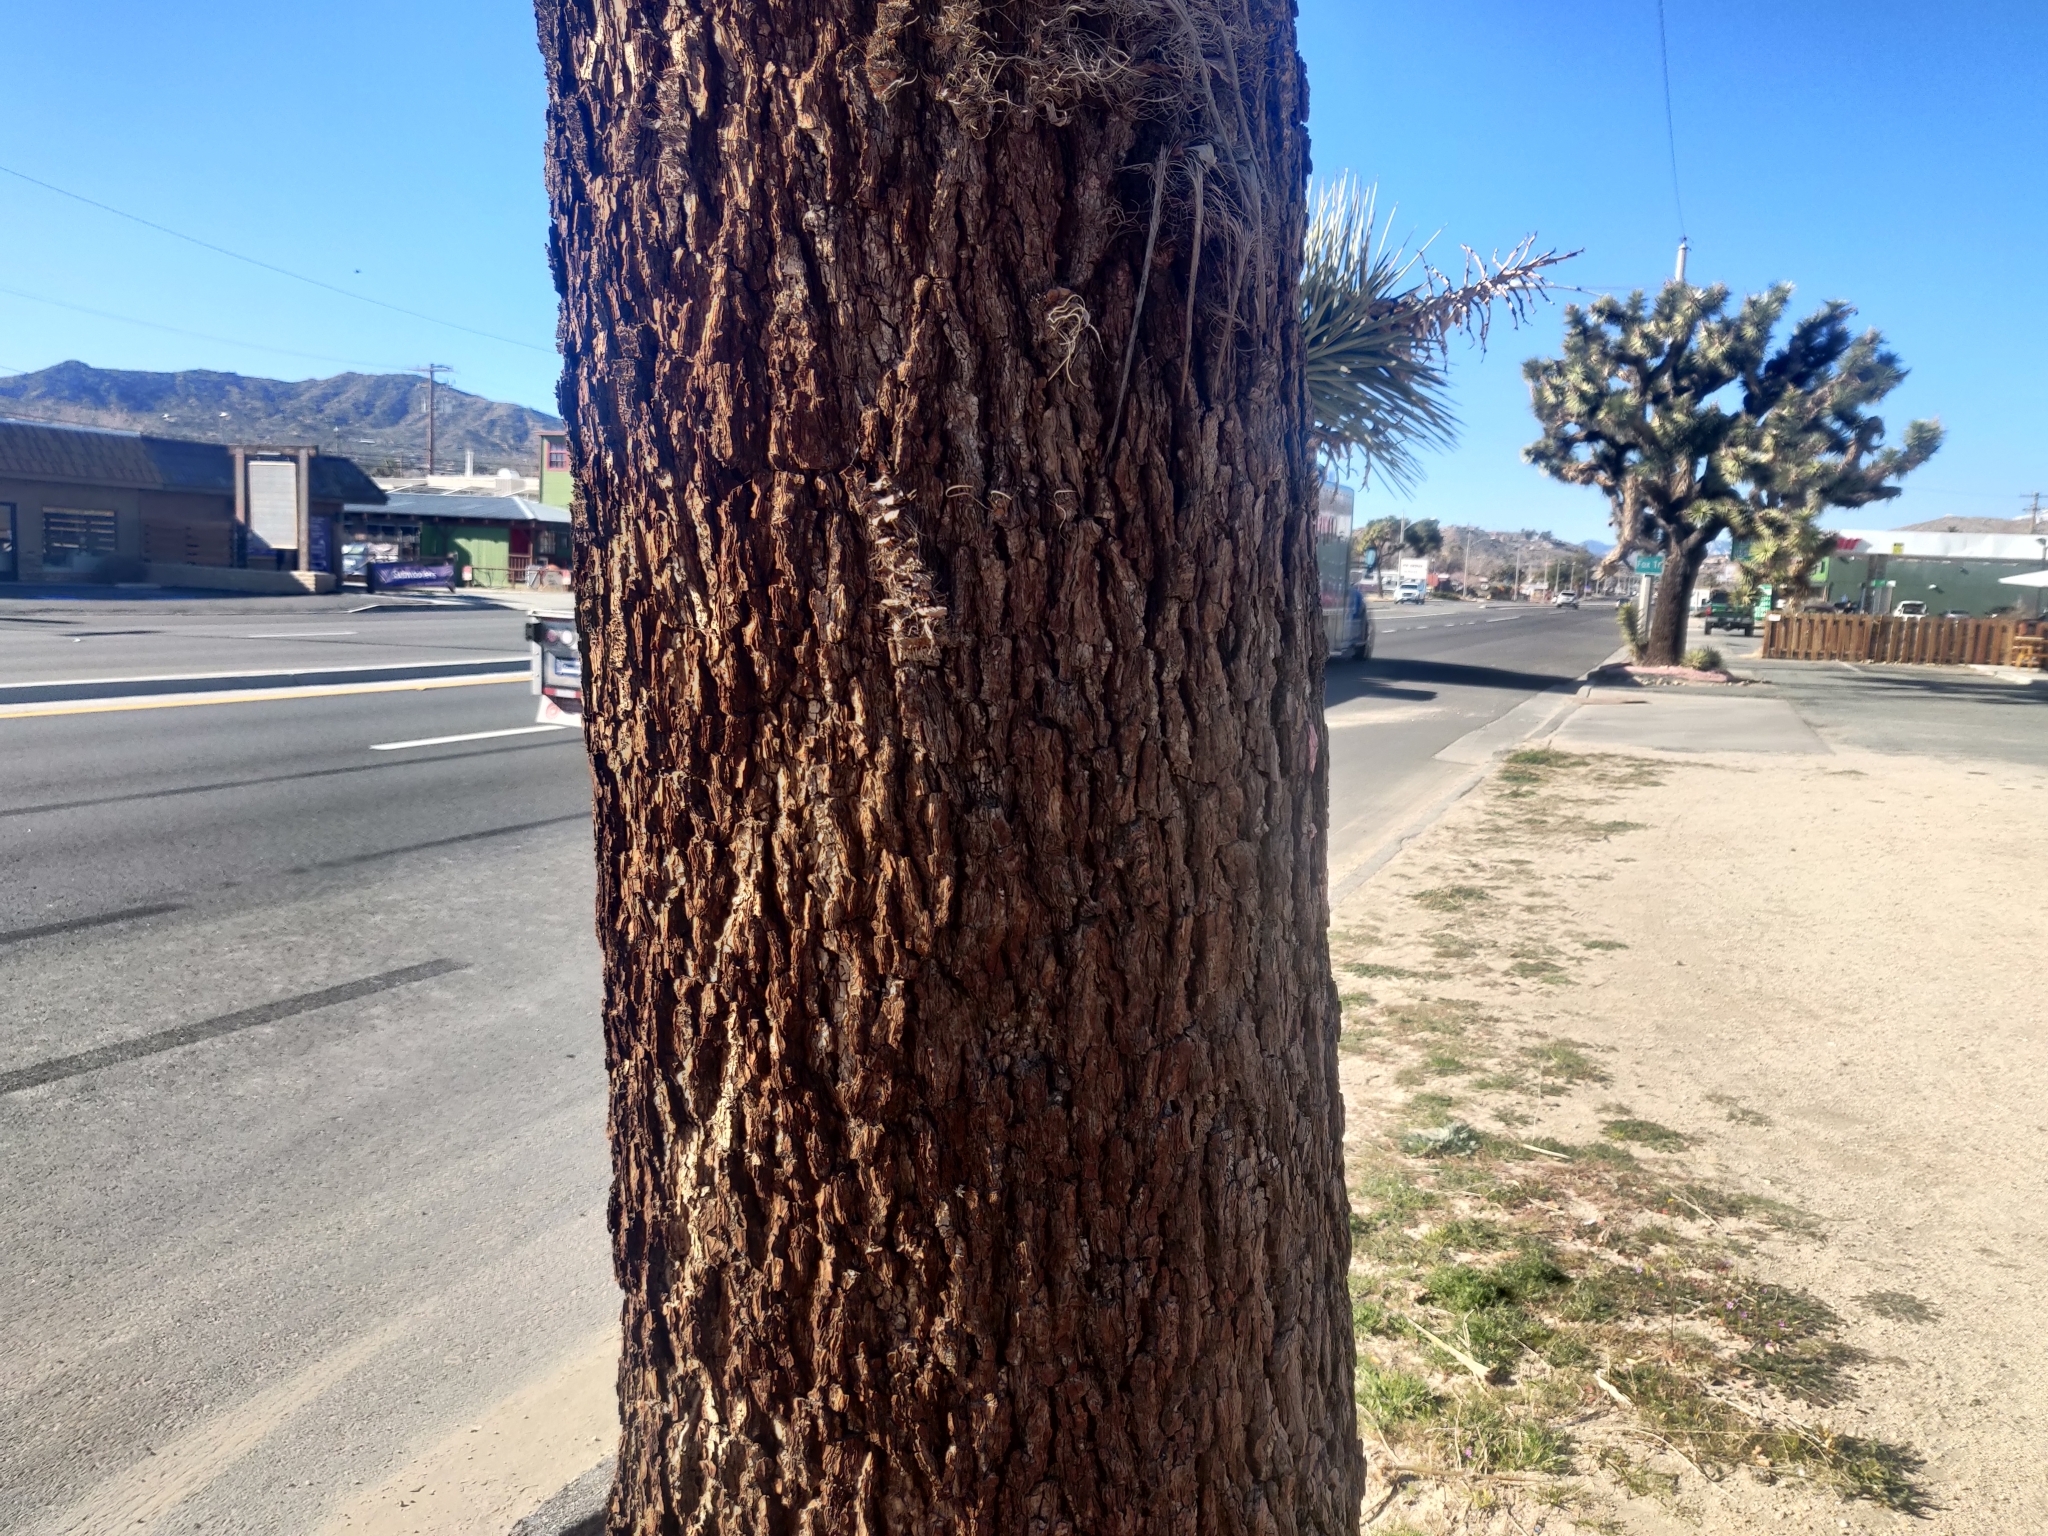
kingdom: Plantae
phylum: Tracheophyta
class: Liliopsida
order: Asparagales
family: Asparagaceae
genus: Yucca
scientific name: Yucca brevifolia
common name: Joshua tree
